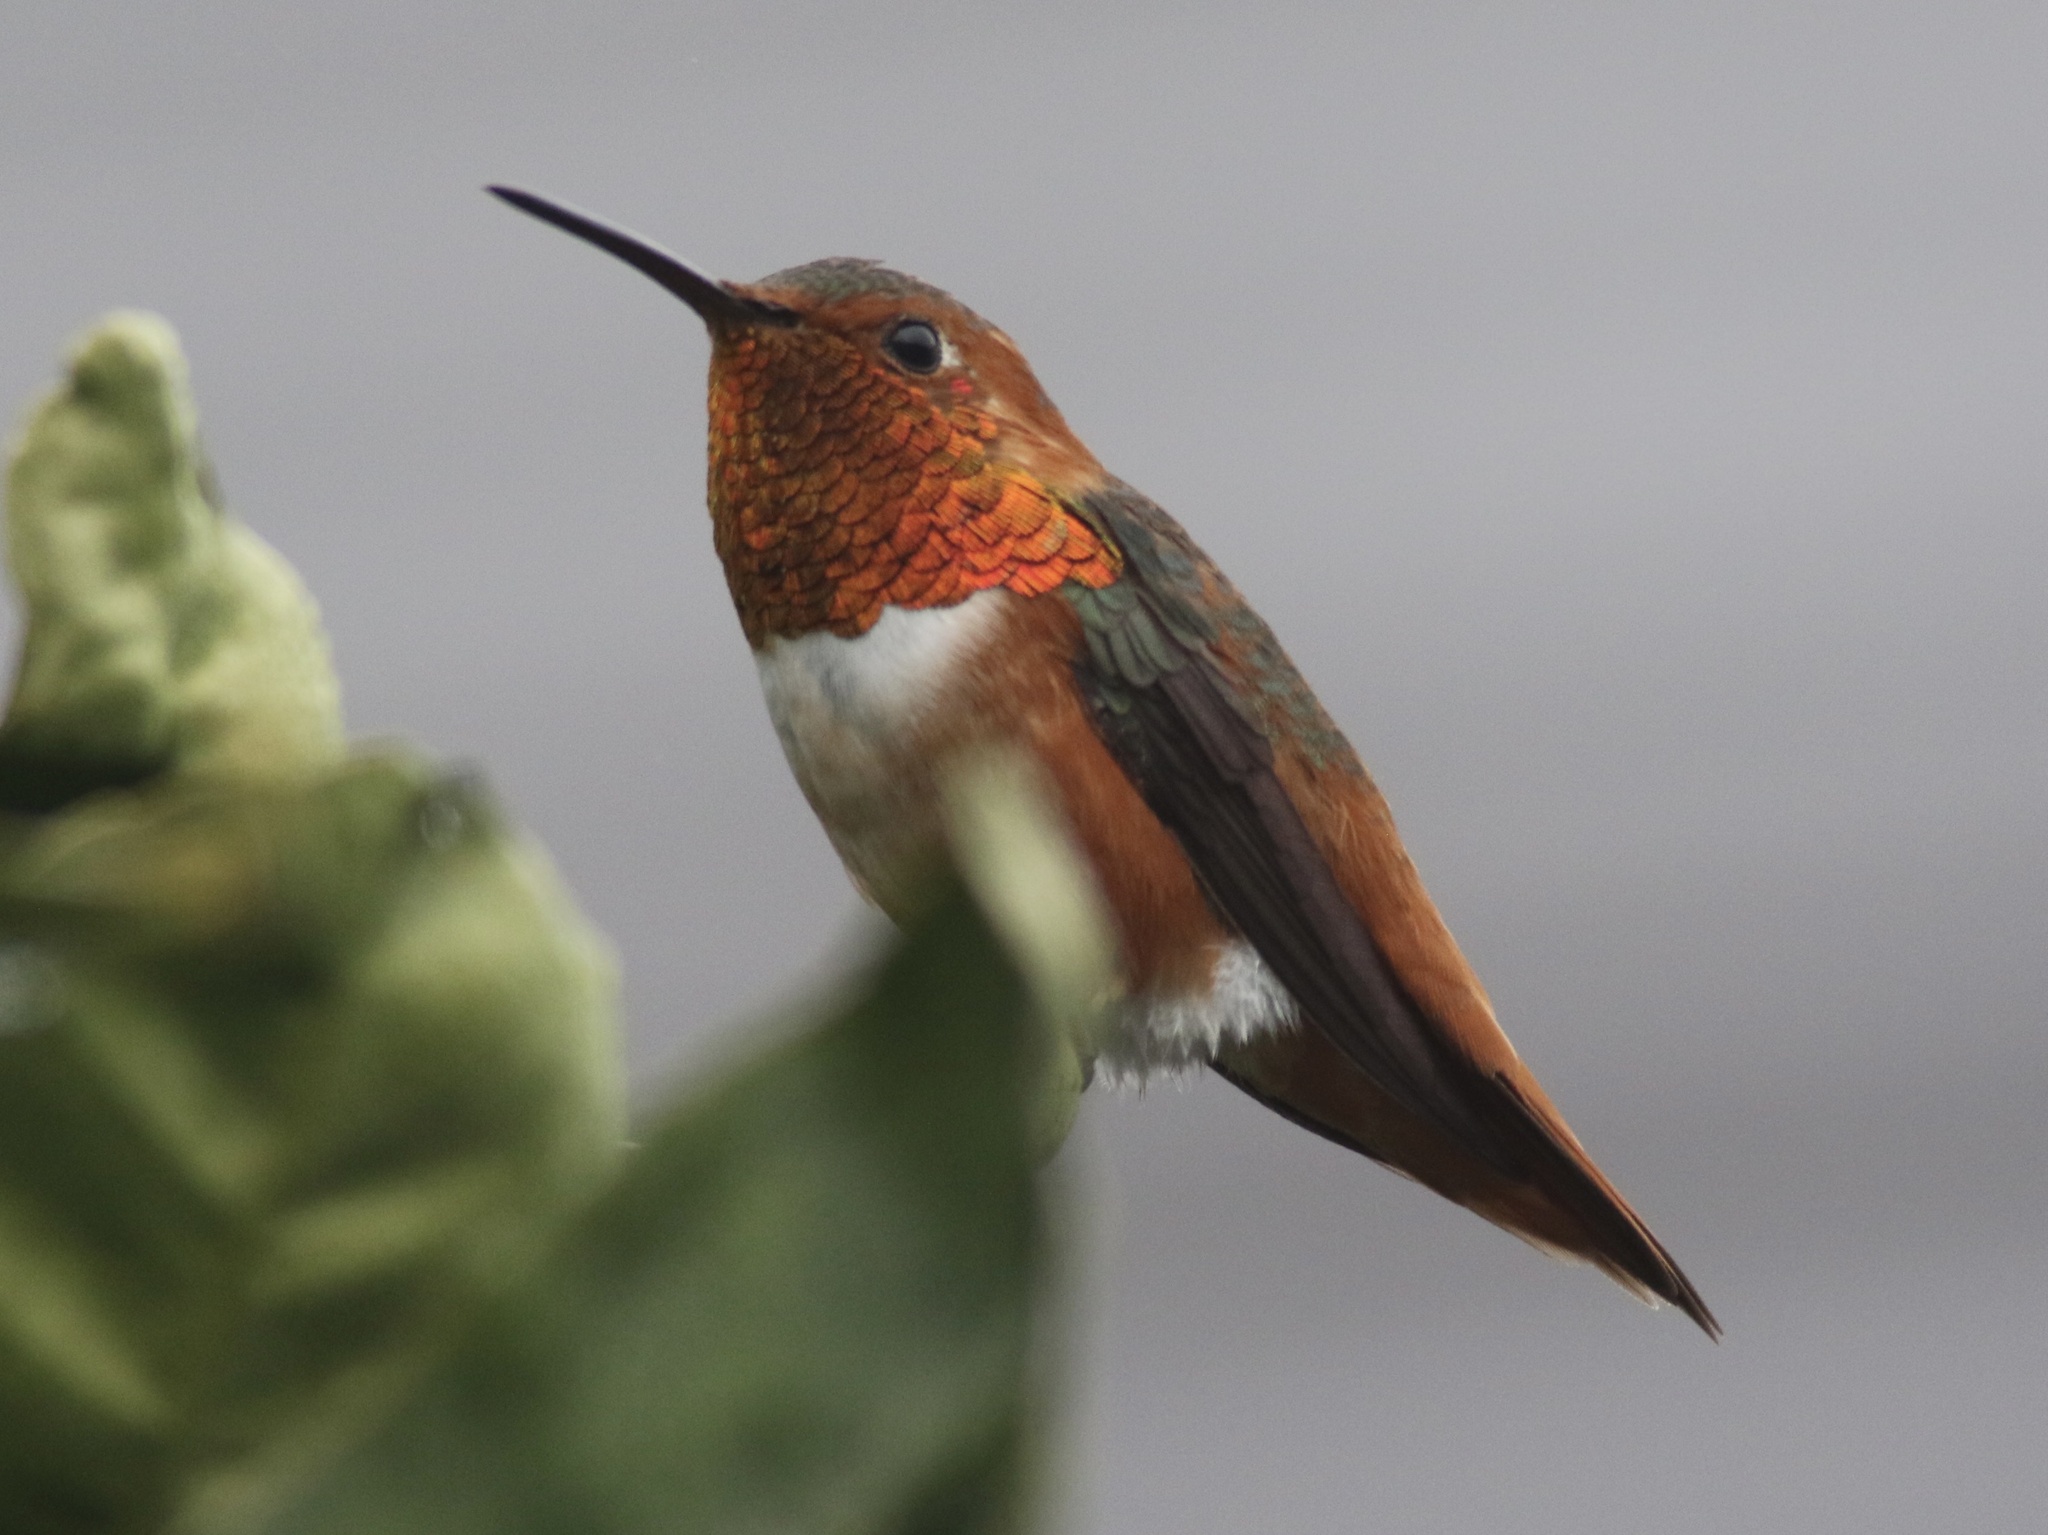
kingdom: Animalia
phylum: Chordata
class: Aves
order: Apodiformes
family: Trochilidae
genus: Selasphorus
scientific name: Selasphorus sasin
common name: Allen's hummingbird
